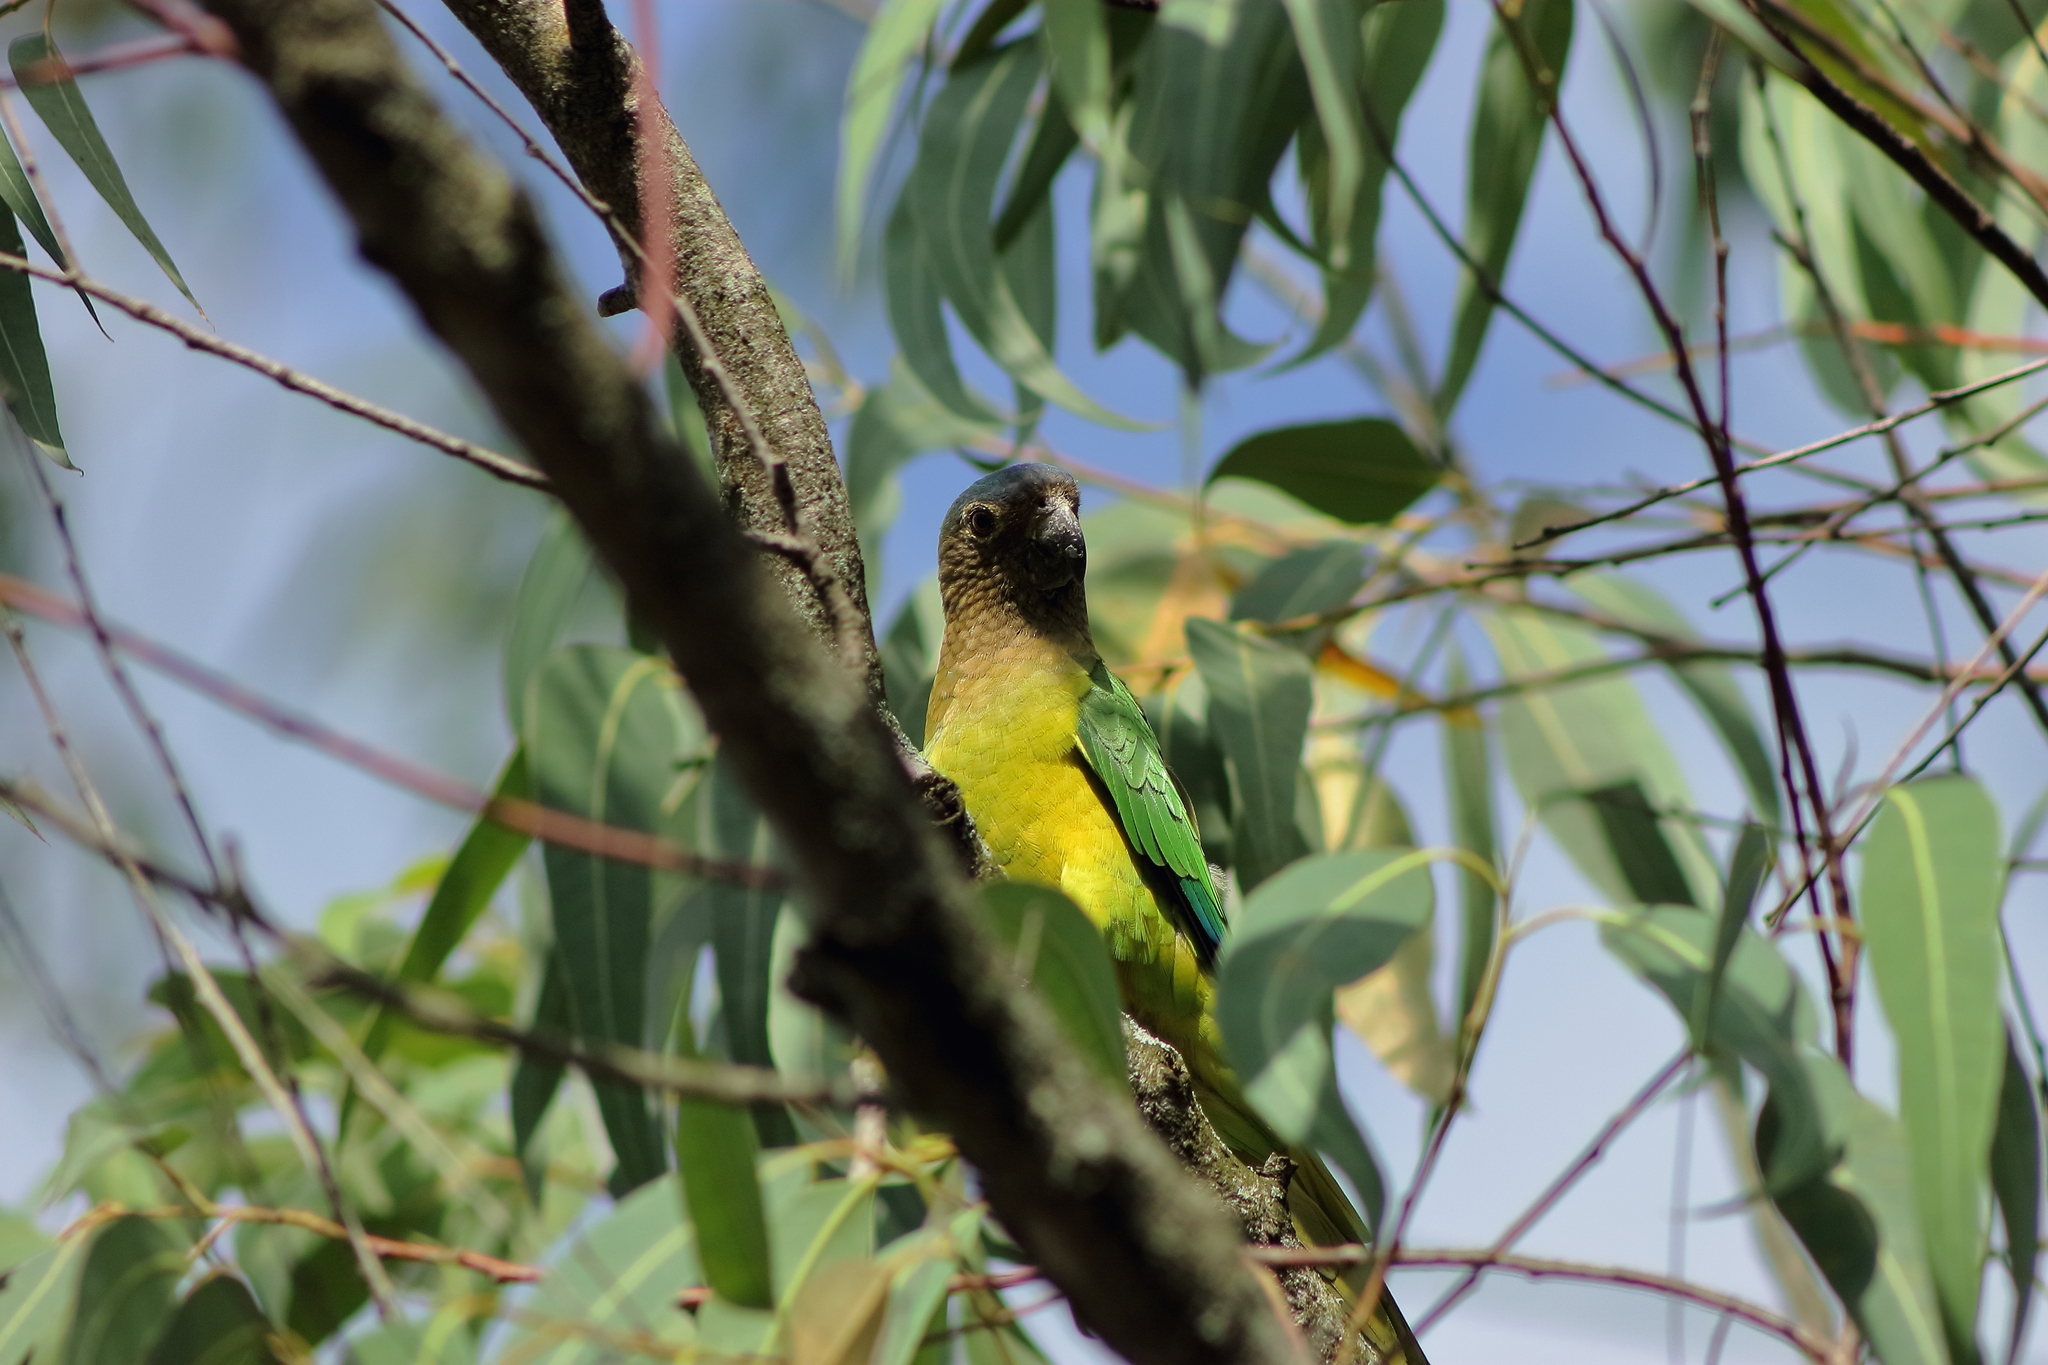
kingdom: Animalia
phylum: Chordata
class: Aves
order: Psittaciformes
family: Psittacidae
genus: Aratinga
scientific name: Aratinga pertinax
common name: Brown-throated parakeet
